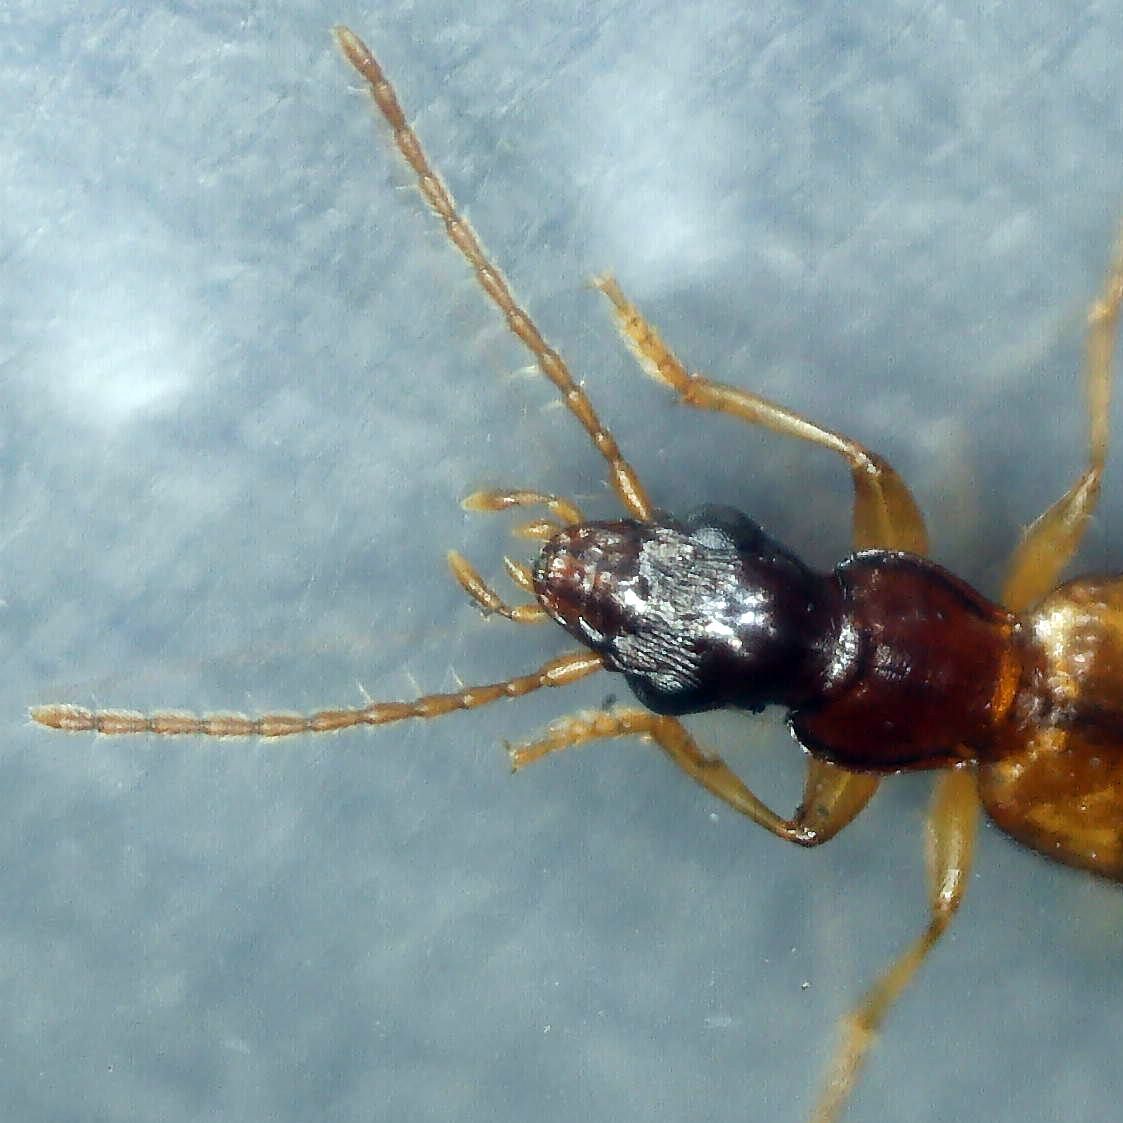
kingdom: Animalia
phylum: Arthropoda
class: Insecta
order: Coleoptera
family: Carabidae
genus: Paradromius
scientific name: Paradromius linearis
